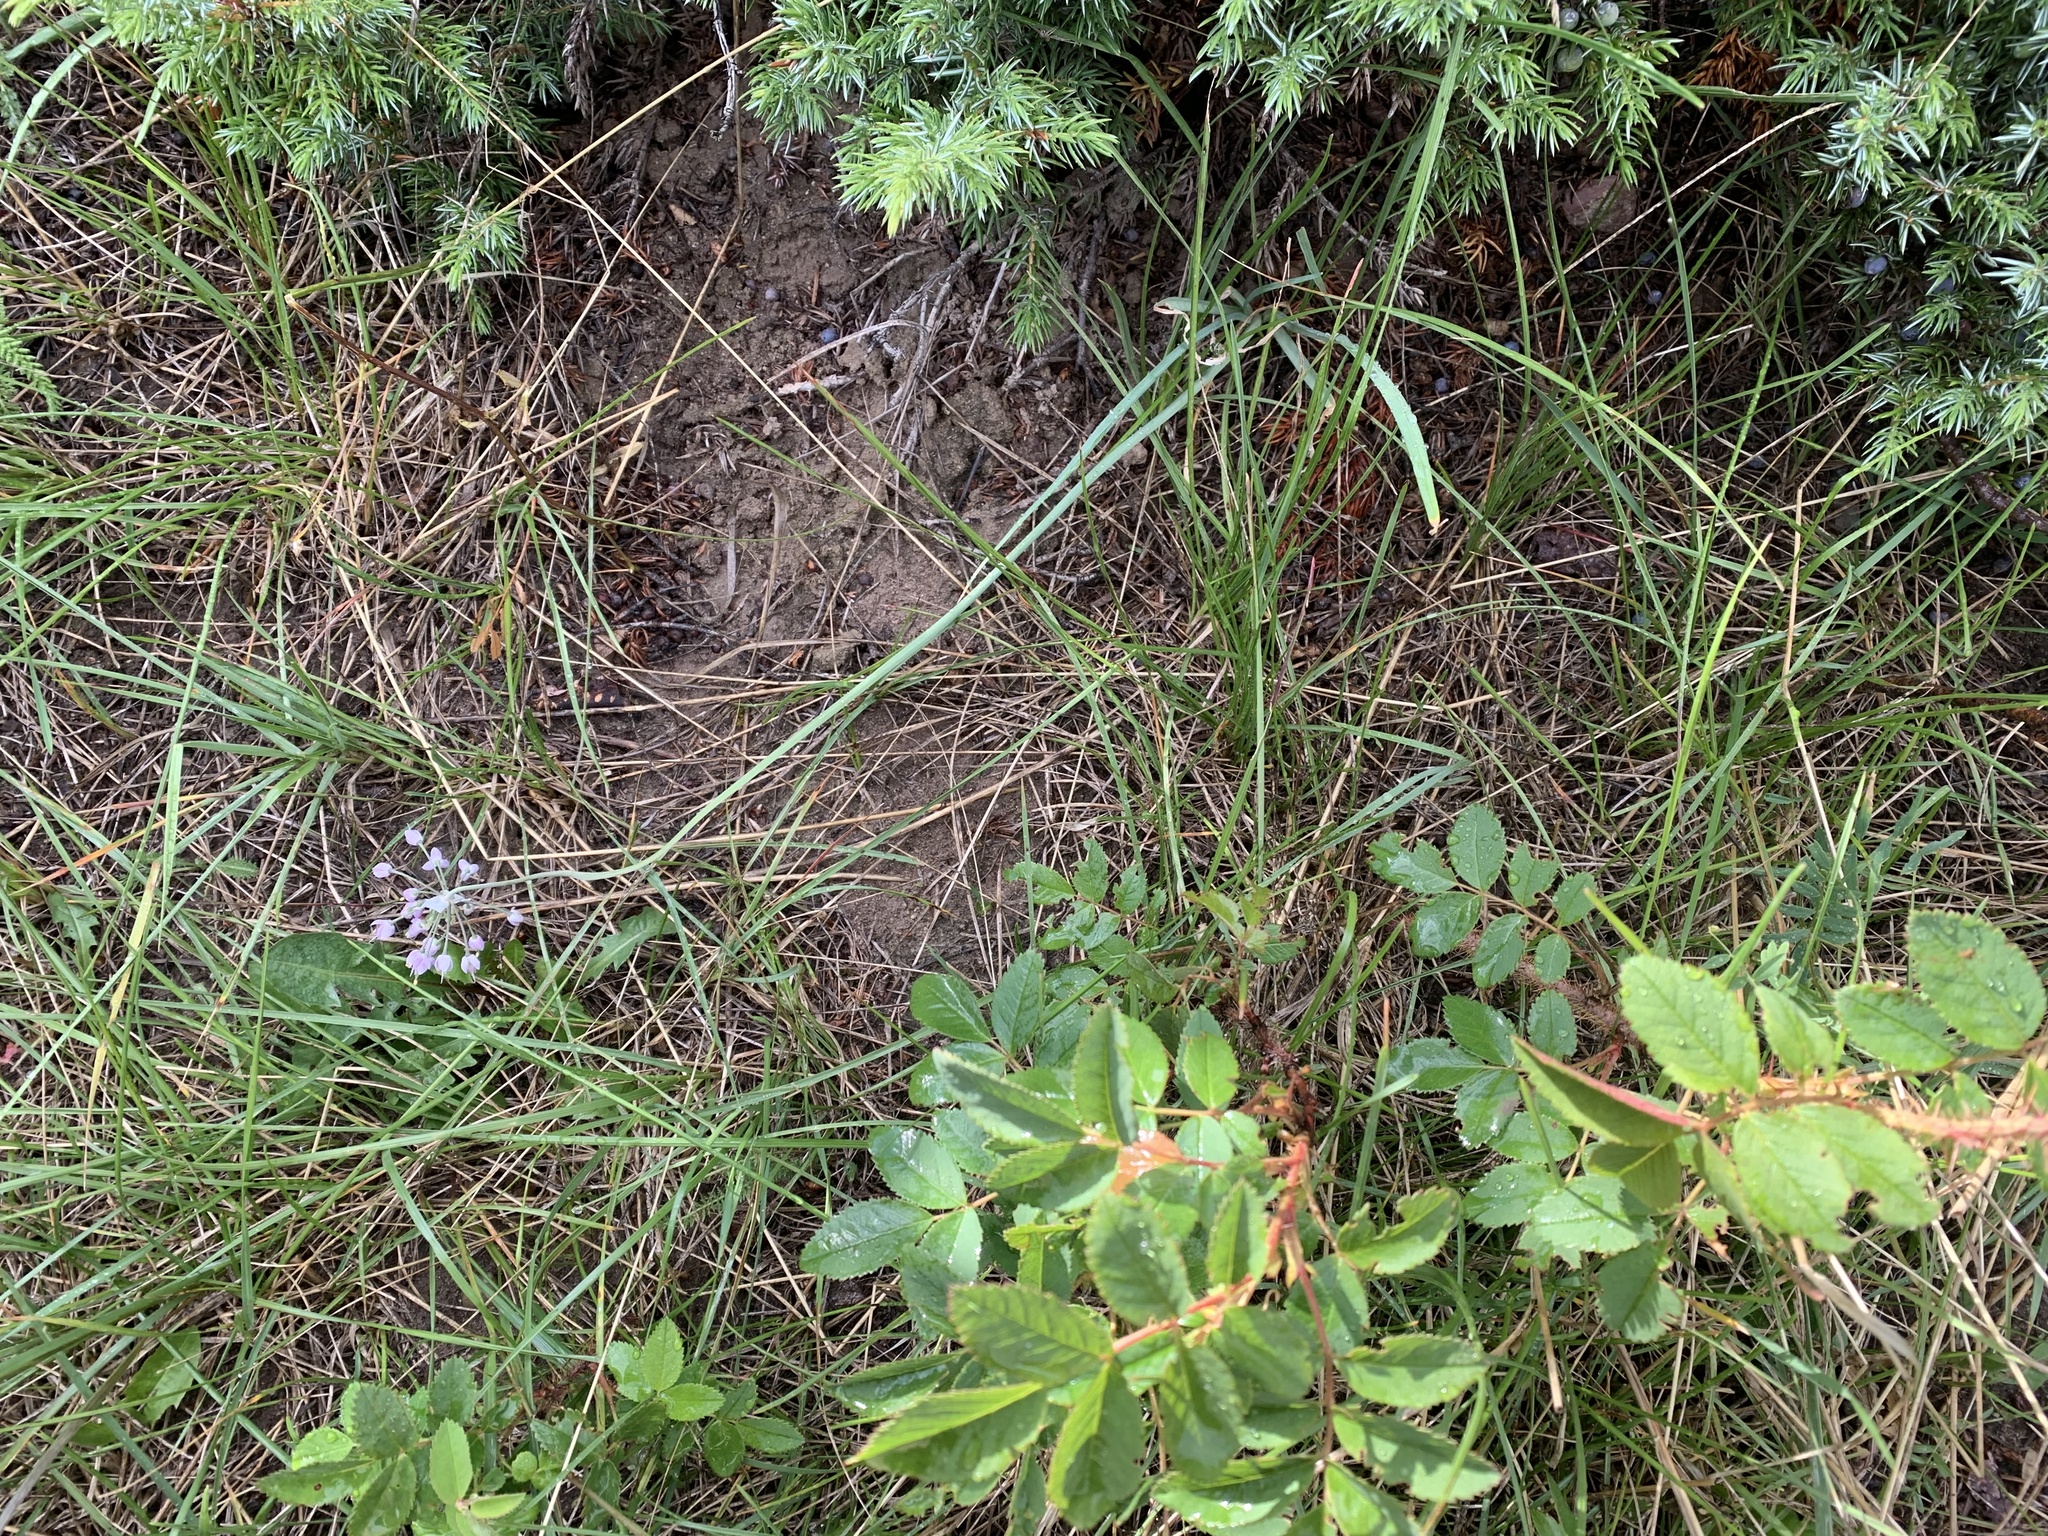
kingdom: Plantae
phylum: Tracheophyta
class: Liliopsida
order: Asparagales
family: Amaryllidaceae
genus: Allium
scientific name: Allium cernuum
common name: Nodding onion
